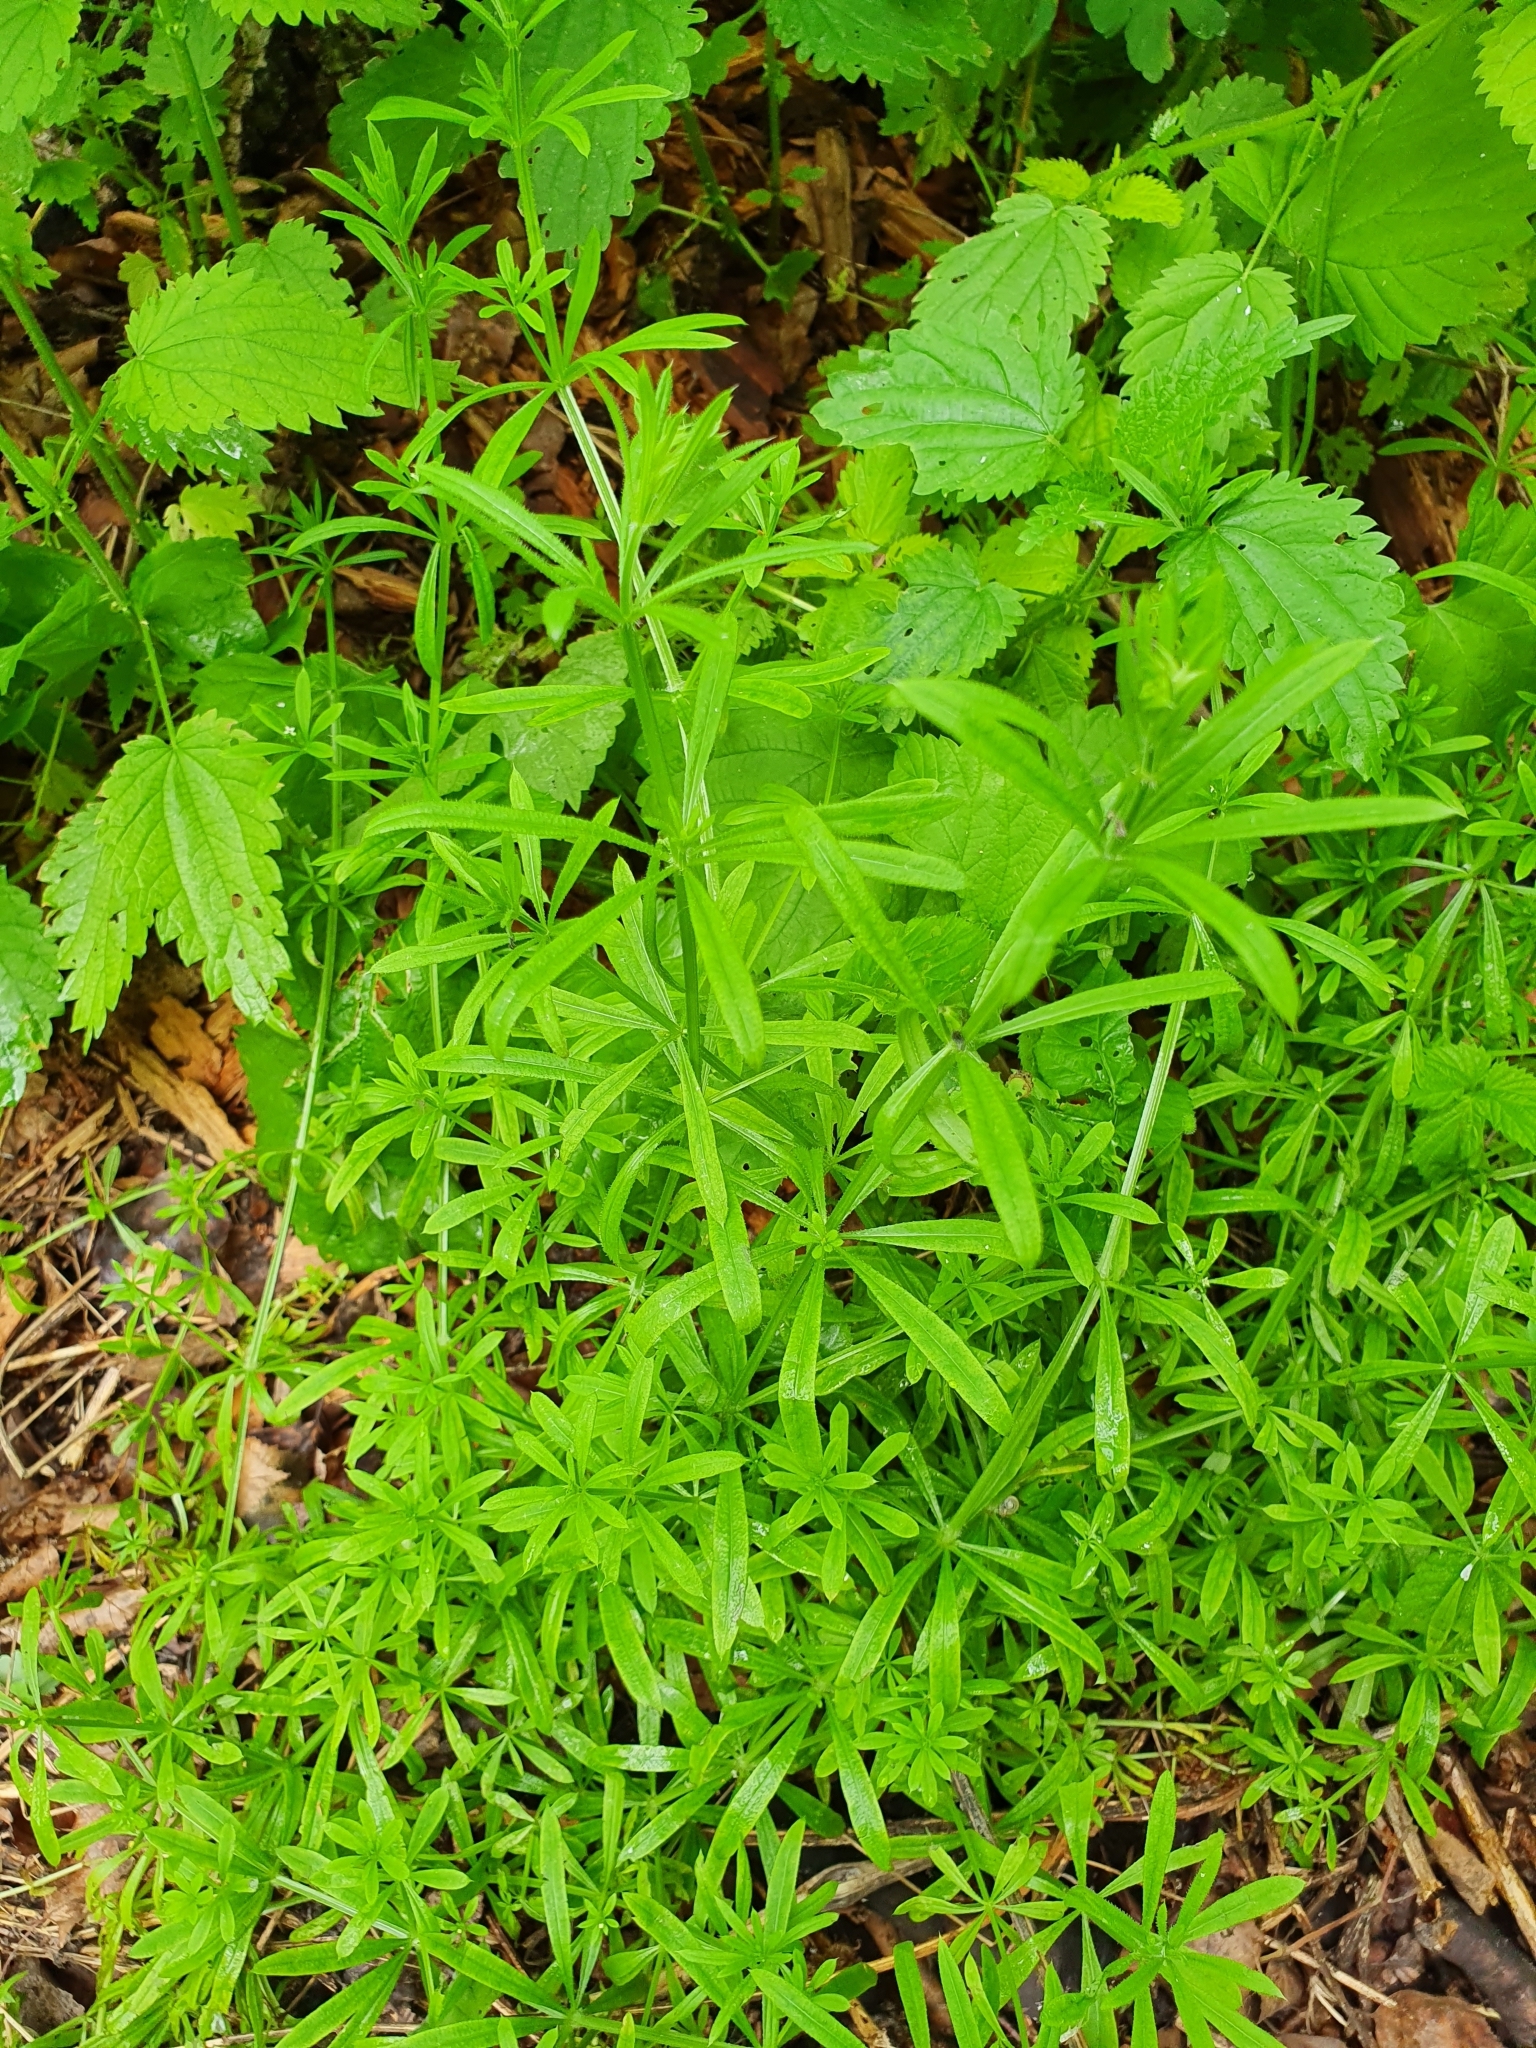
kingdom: Plantae
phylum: Tracheophyta
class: Magnoliopsida
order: Gentianales
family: Rubiaceae
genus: Galium
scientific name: Galium aparine
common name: Cleavers
